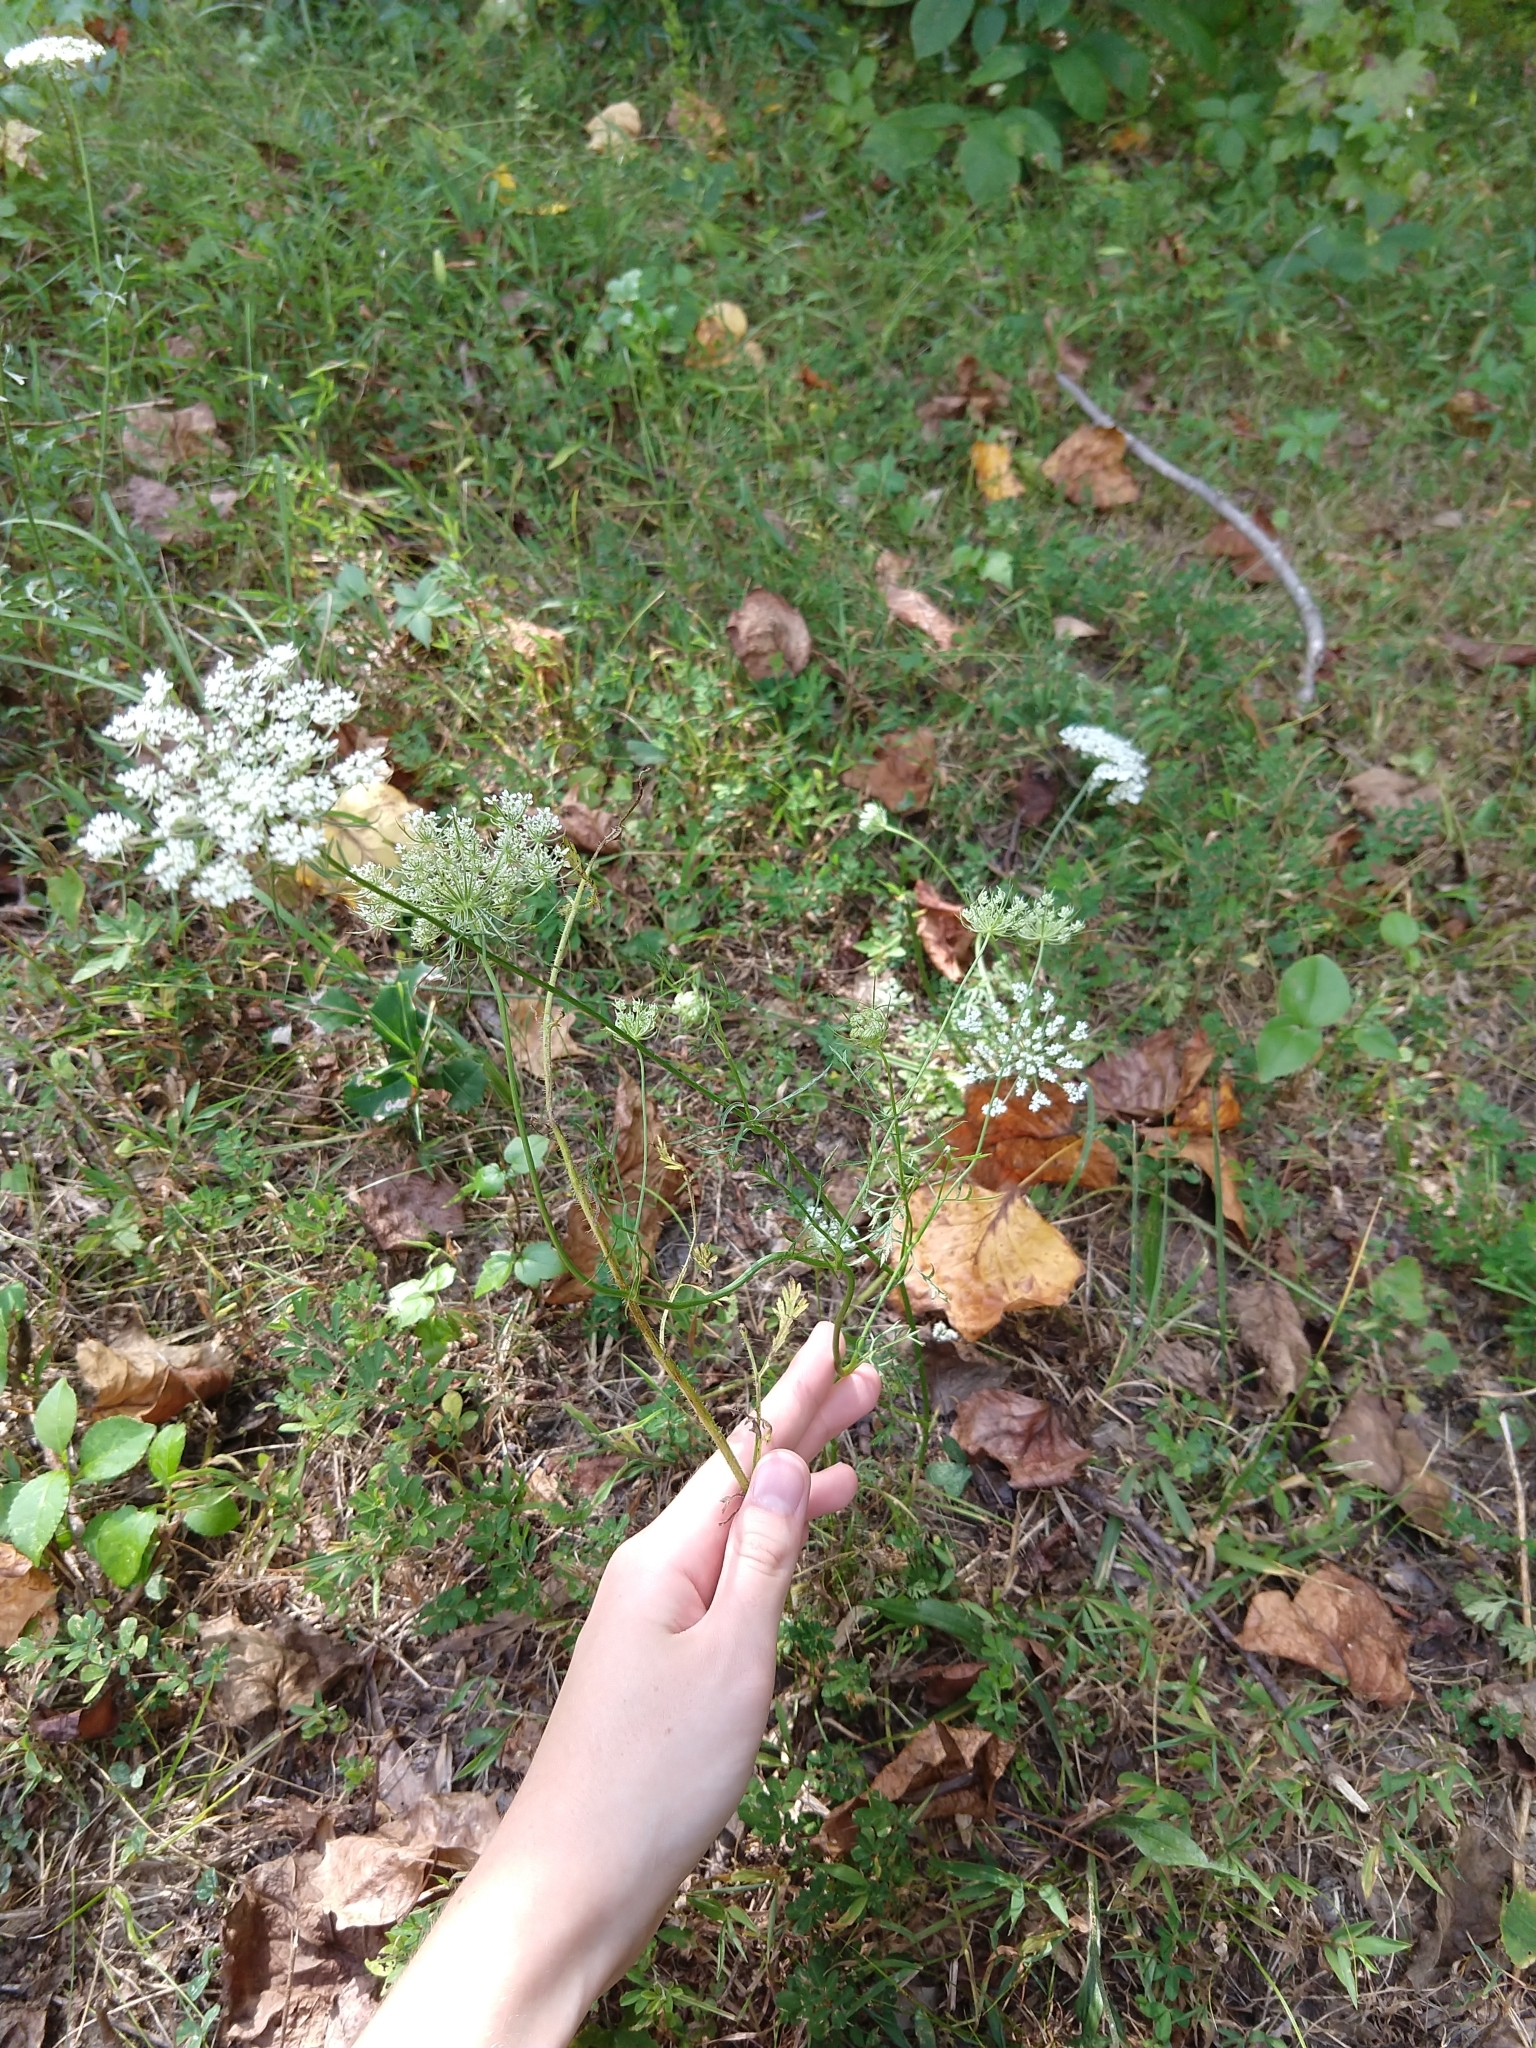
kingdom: Plantae
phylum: Tracheophyta
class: Magnoliopsida
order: Apiales
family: Apiaceae
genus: Daucus
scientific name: Daucus carota
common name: Wild carrot
